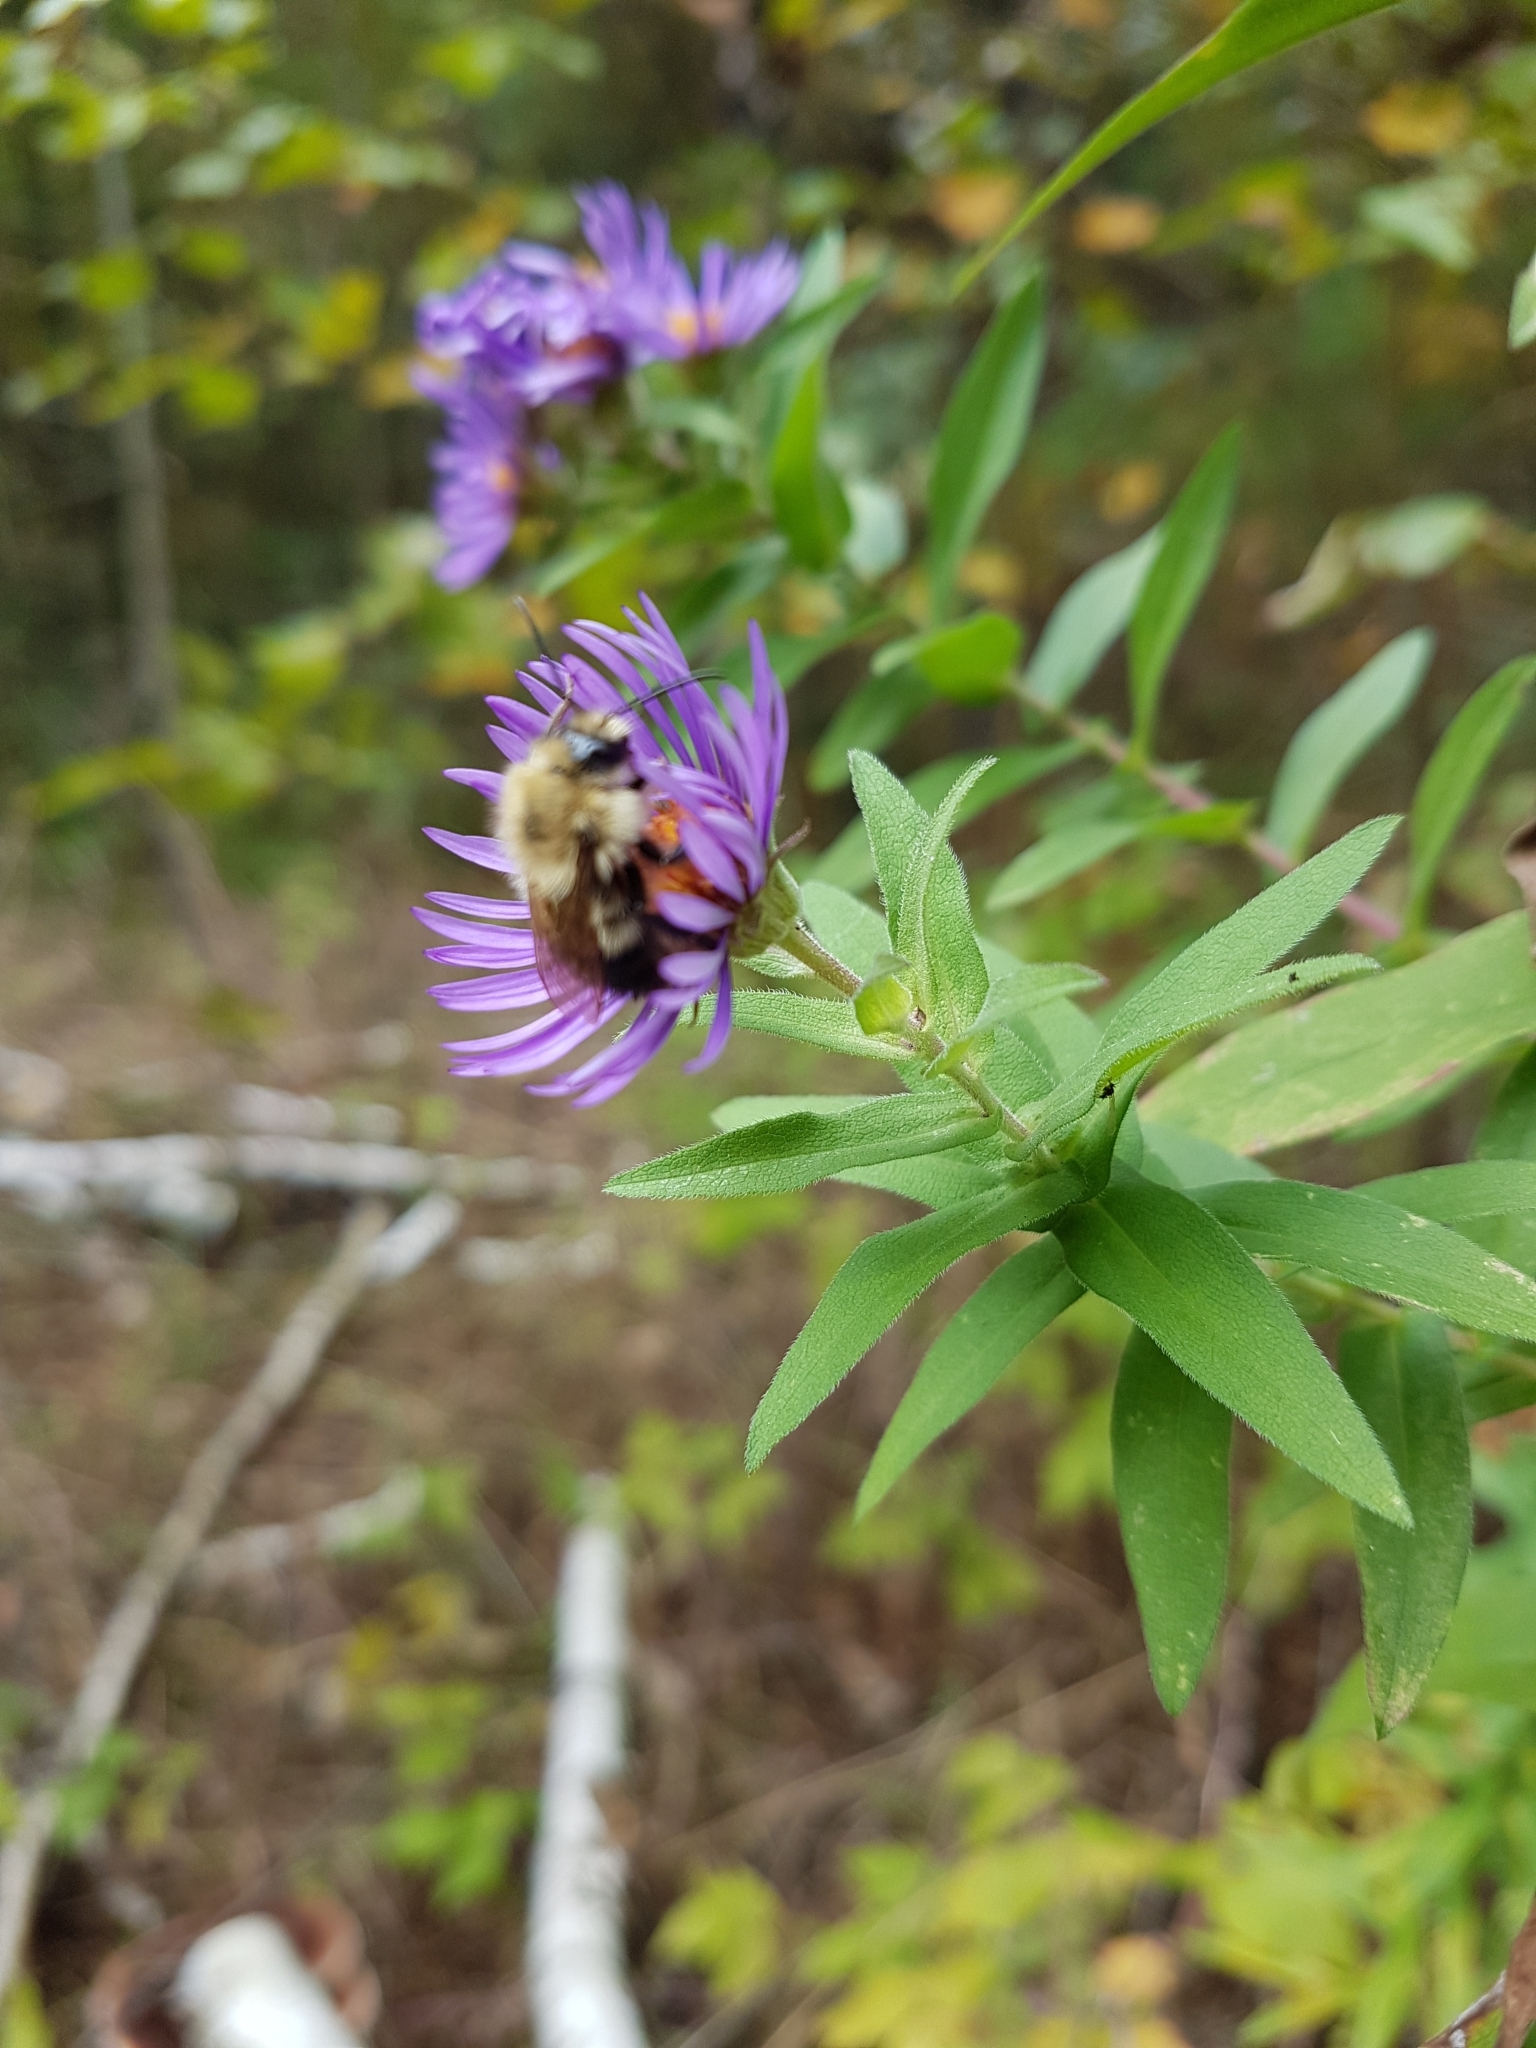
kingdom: Animalia
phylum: Arthropoda
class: Insecta
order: Hymenoptera
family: Apidae
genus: Pyrobombus
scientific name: Pyrobombus
